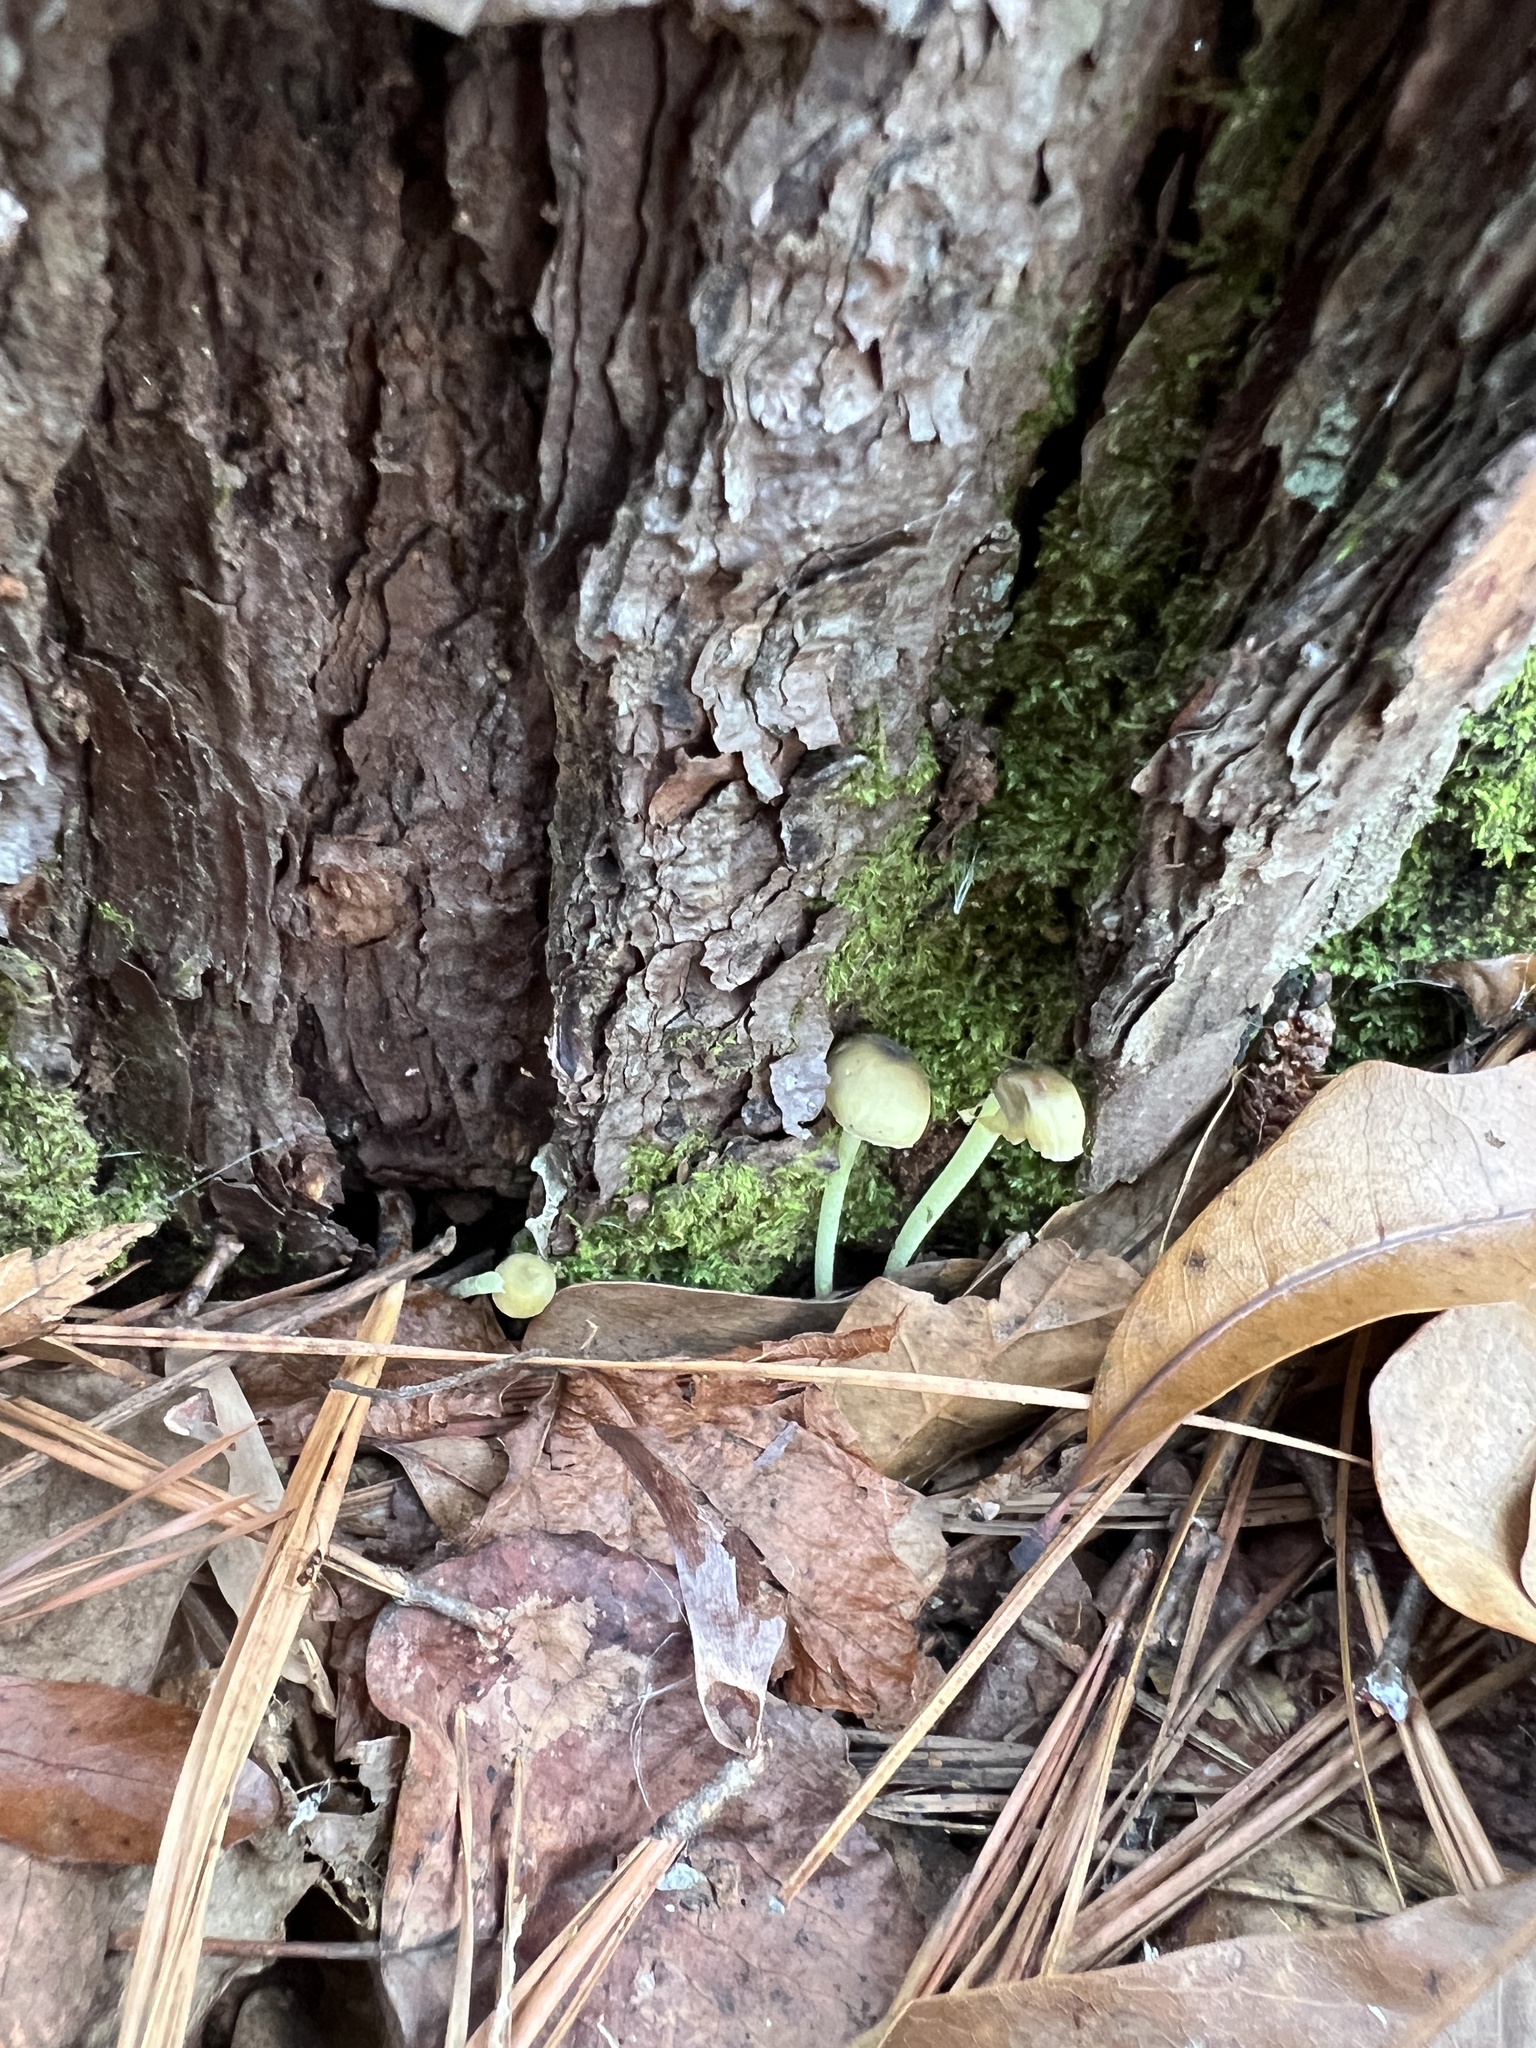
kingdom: Fungi
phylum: Basidiomycota
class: Agaricomycetes
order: Agaricales
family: Mycenaceae
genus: Mycena
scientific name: Mycena epipterygia
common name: Yellowleg bonnet
